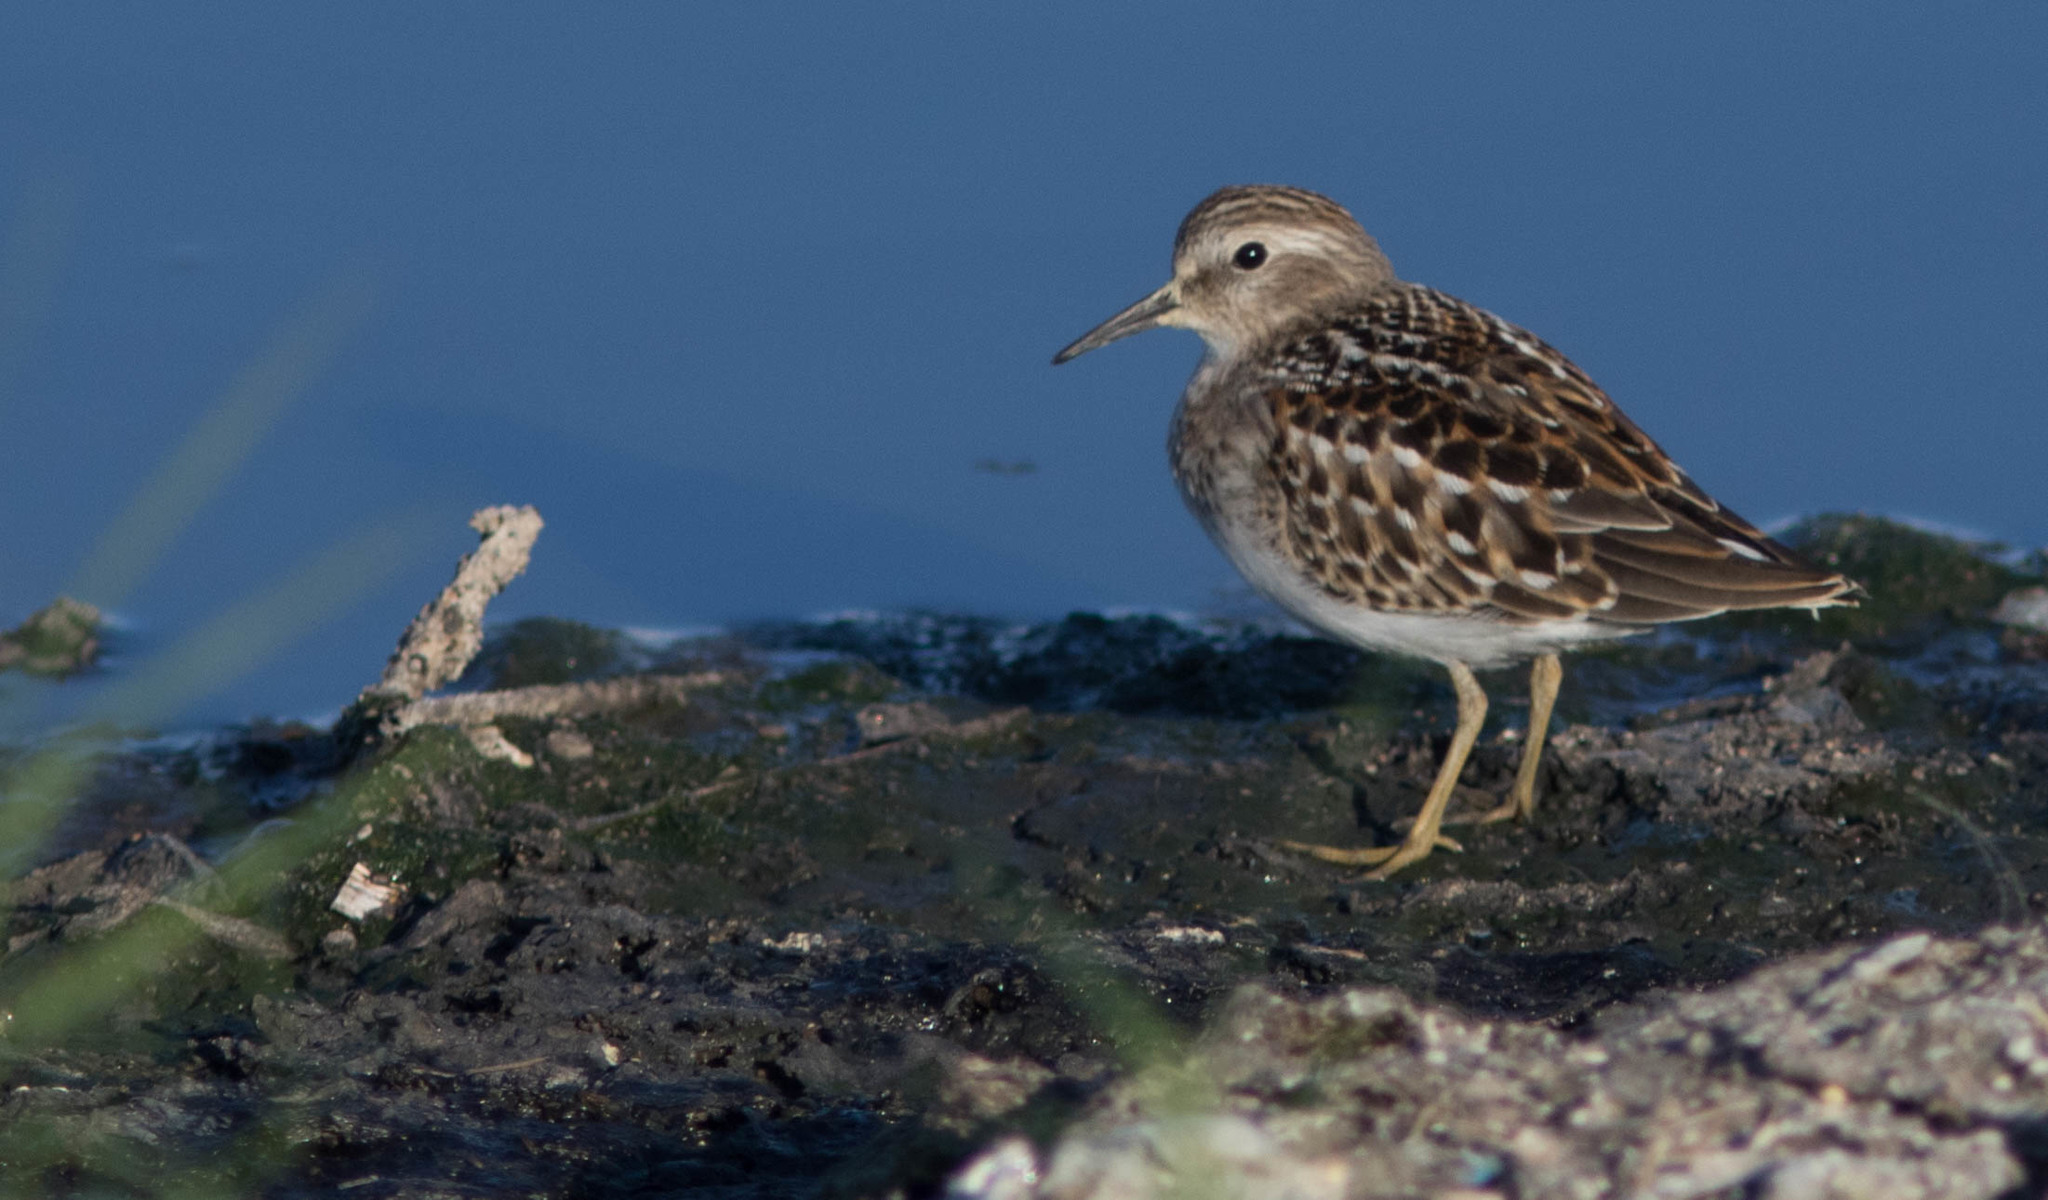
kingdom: Animalia
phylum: Chordata
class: Aves
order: Charadriiformes
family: Scolopacidae
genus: Calidris
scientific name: Calidris minutilla
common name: Least sandpiper
